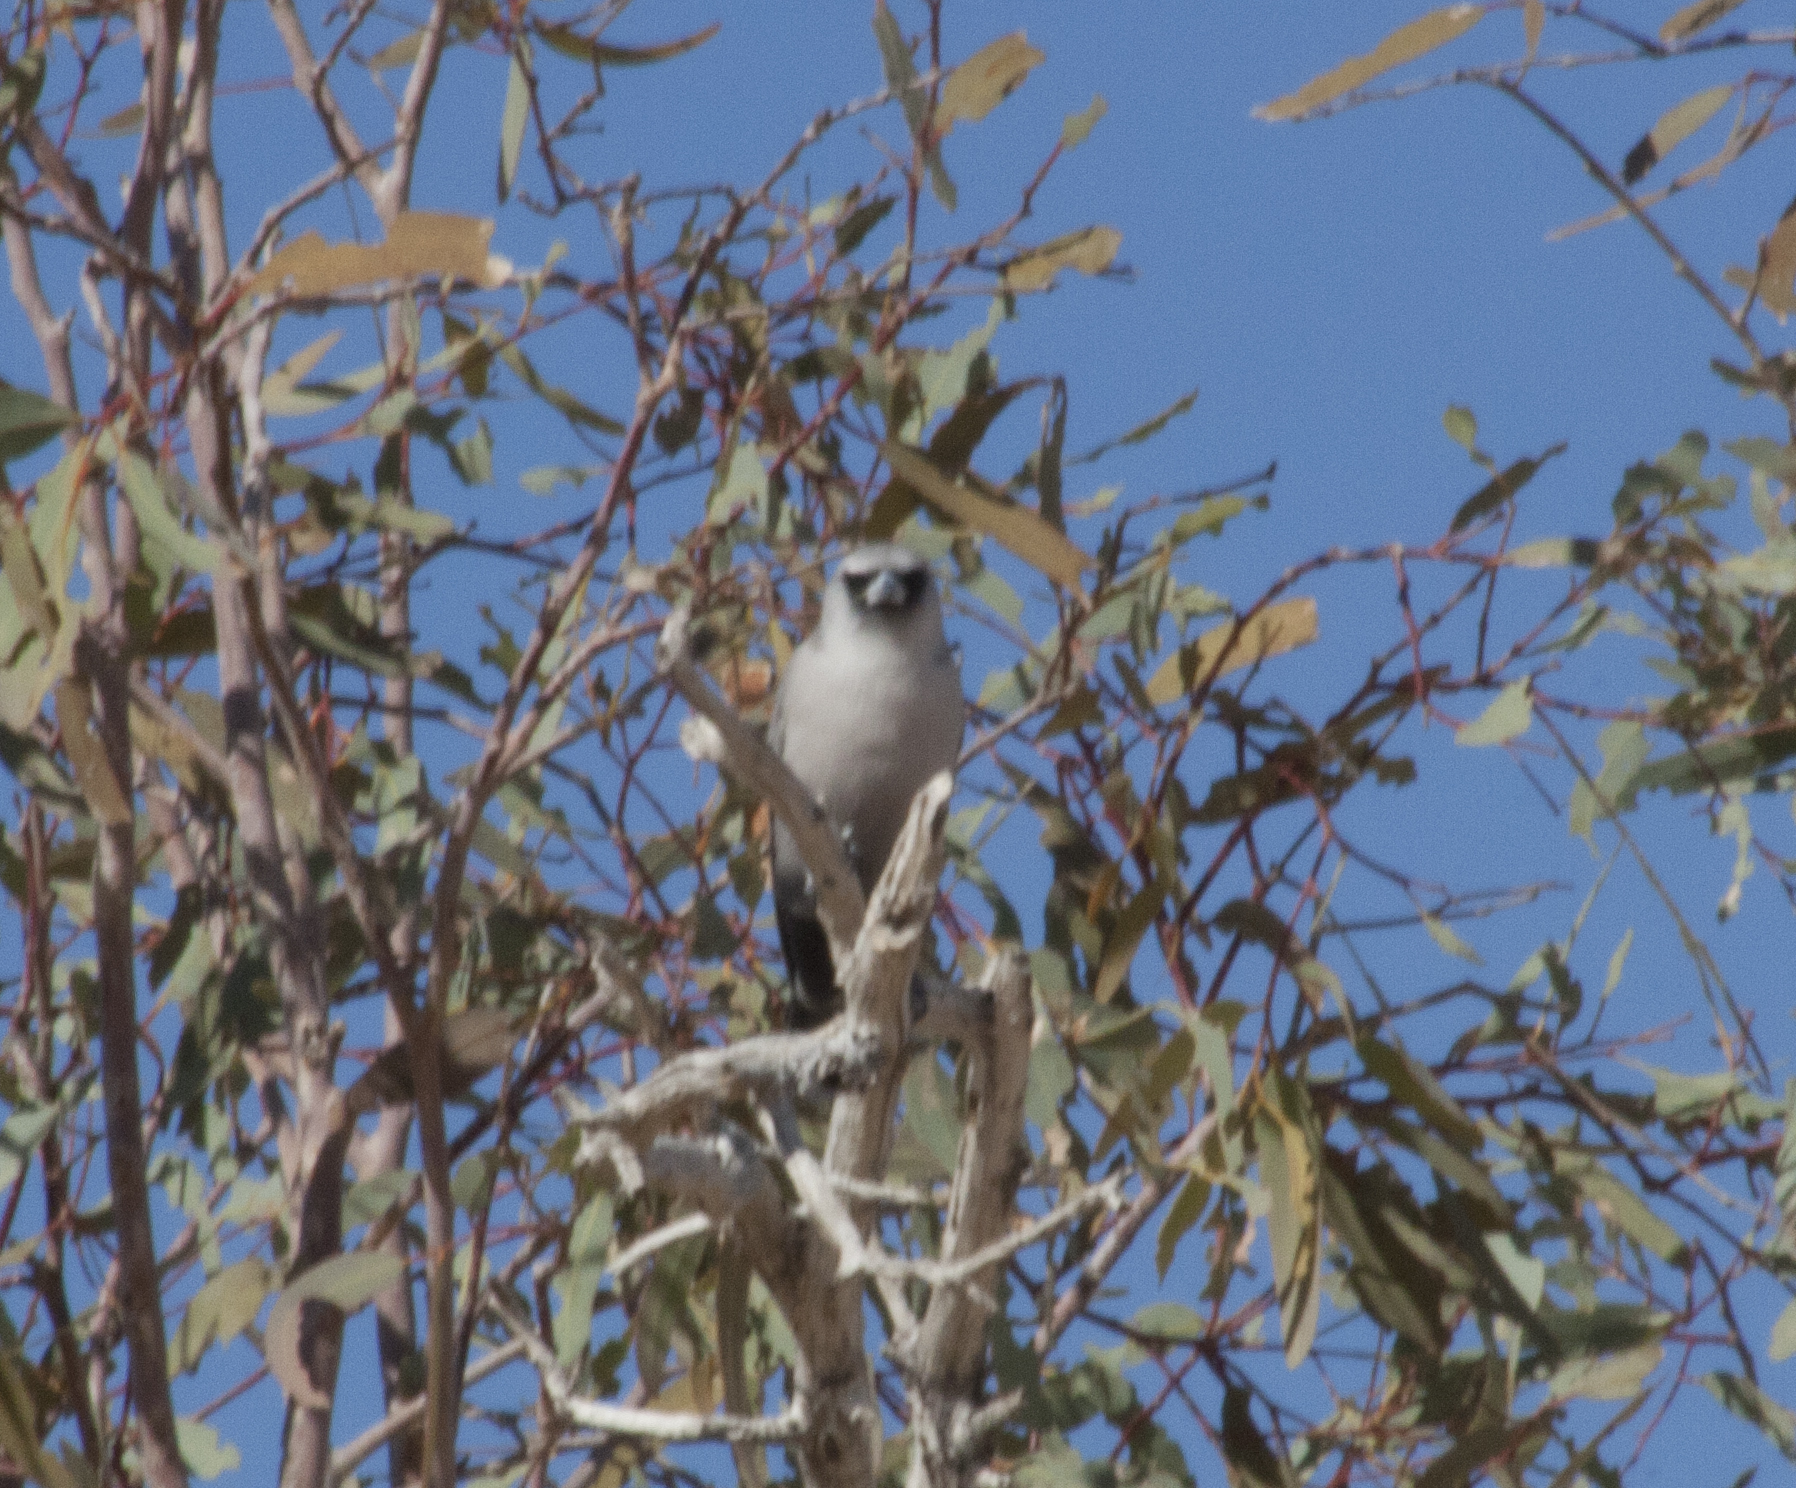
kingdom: Animalia
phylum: Chordata
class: Aves
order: Passeriformes
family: Artamidae
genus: Artamus
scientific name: Artamus cinereus
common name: Black-faced woodswallow
